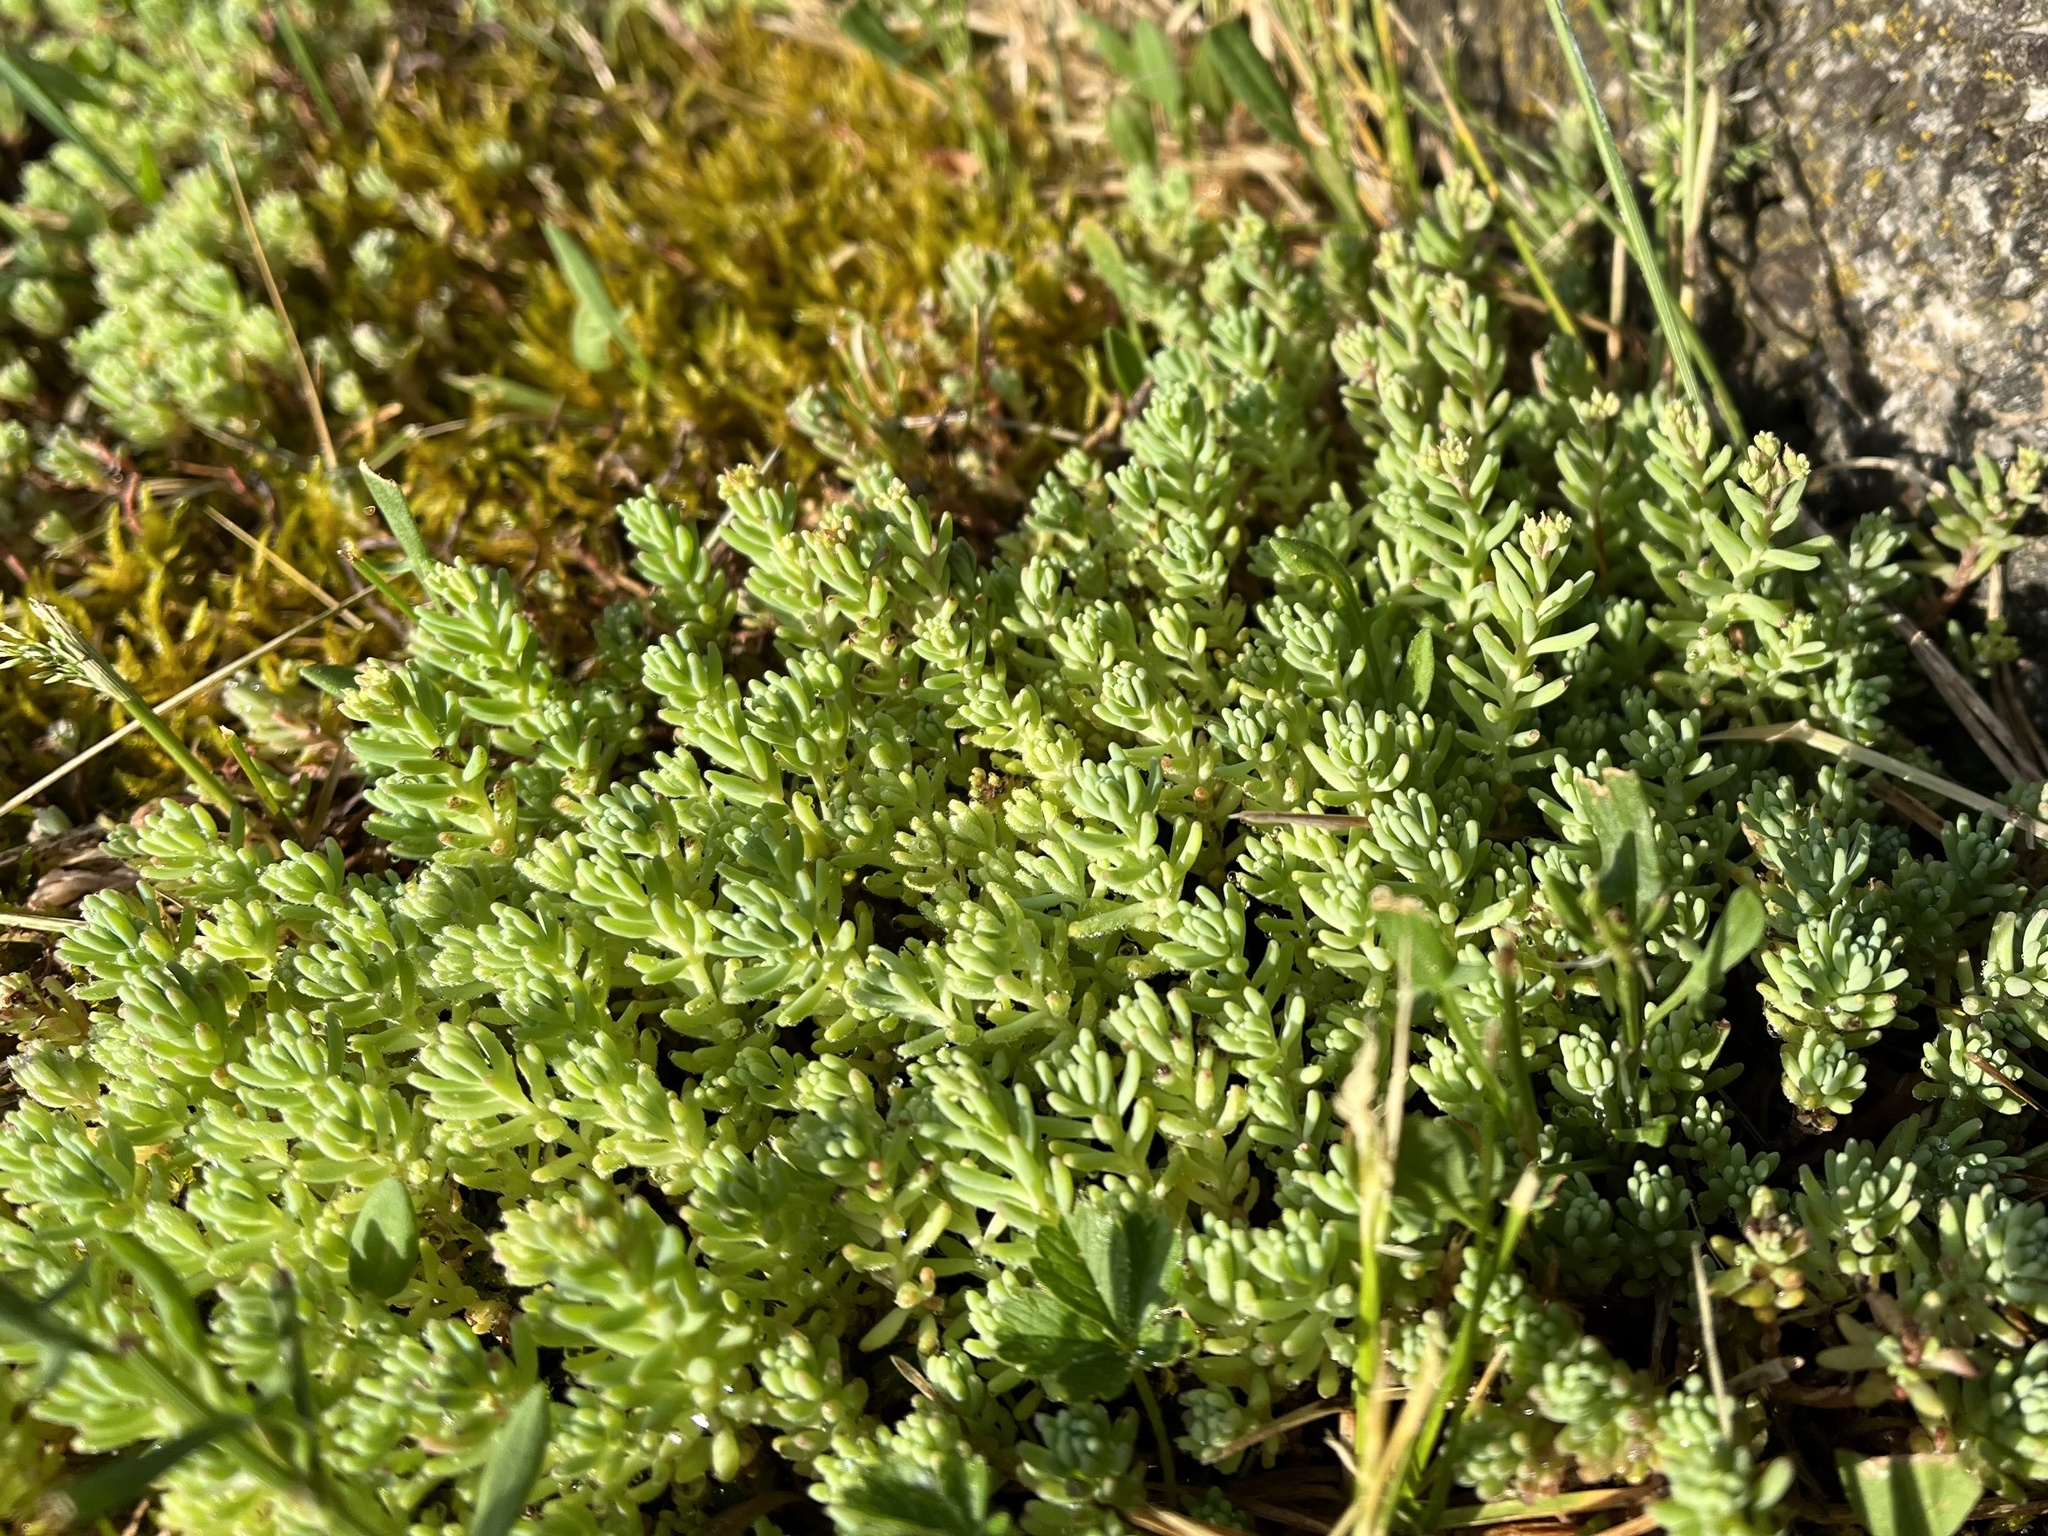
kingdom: Plantae
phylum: Tracheophyta
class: Magnoliopsida
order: Saxifragales
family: Crassulaceae
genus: Sedum
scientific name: Sedum pallidum
